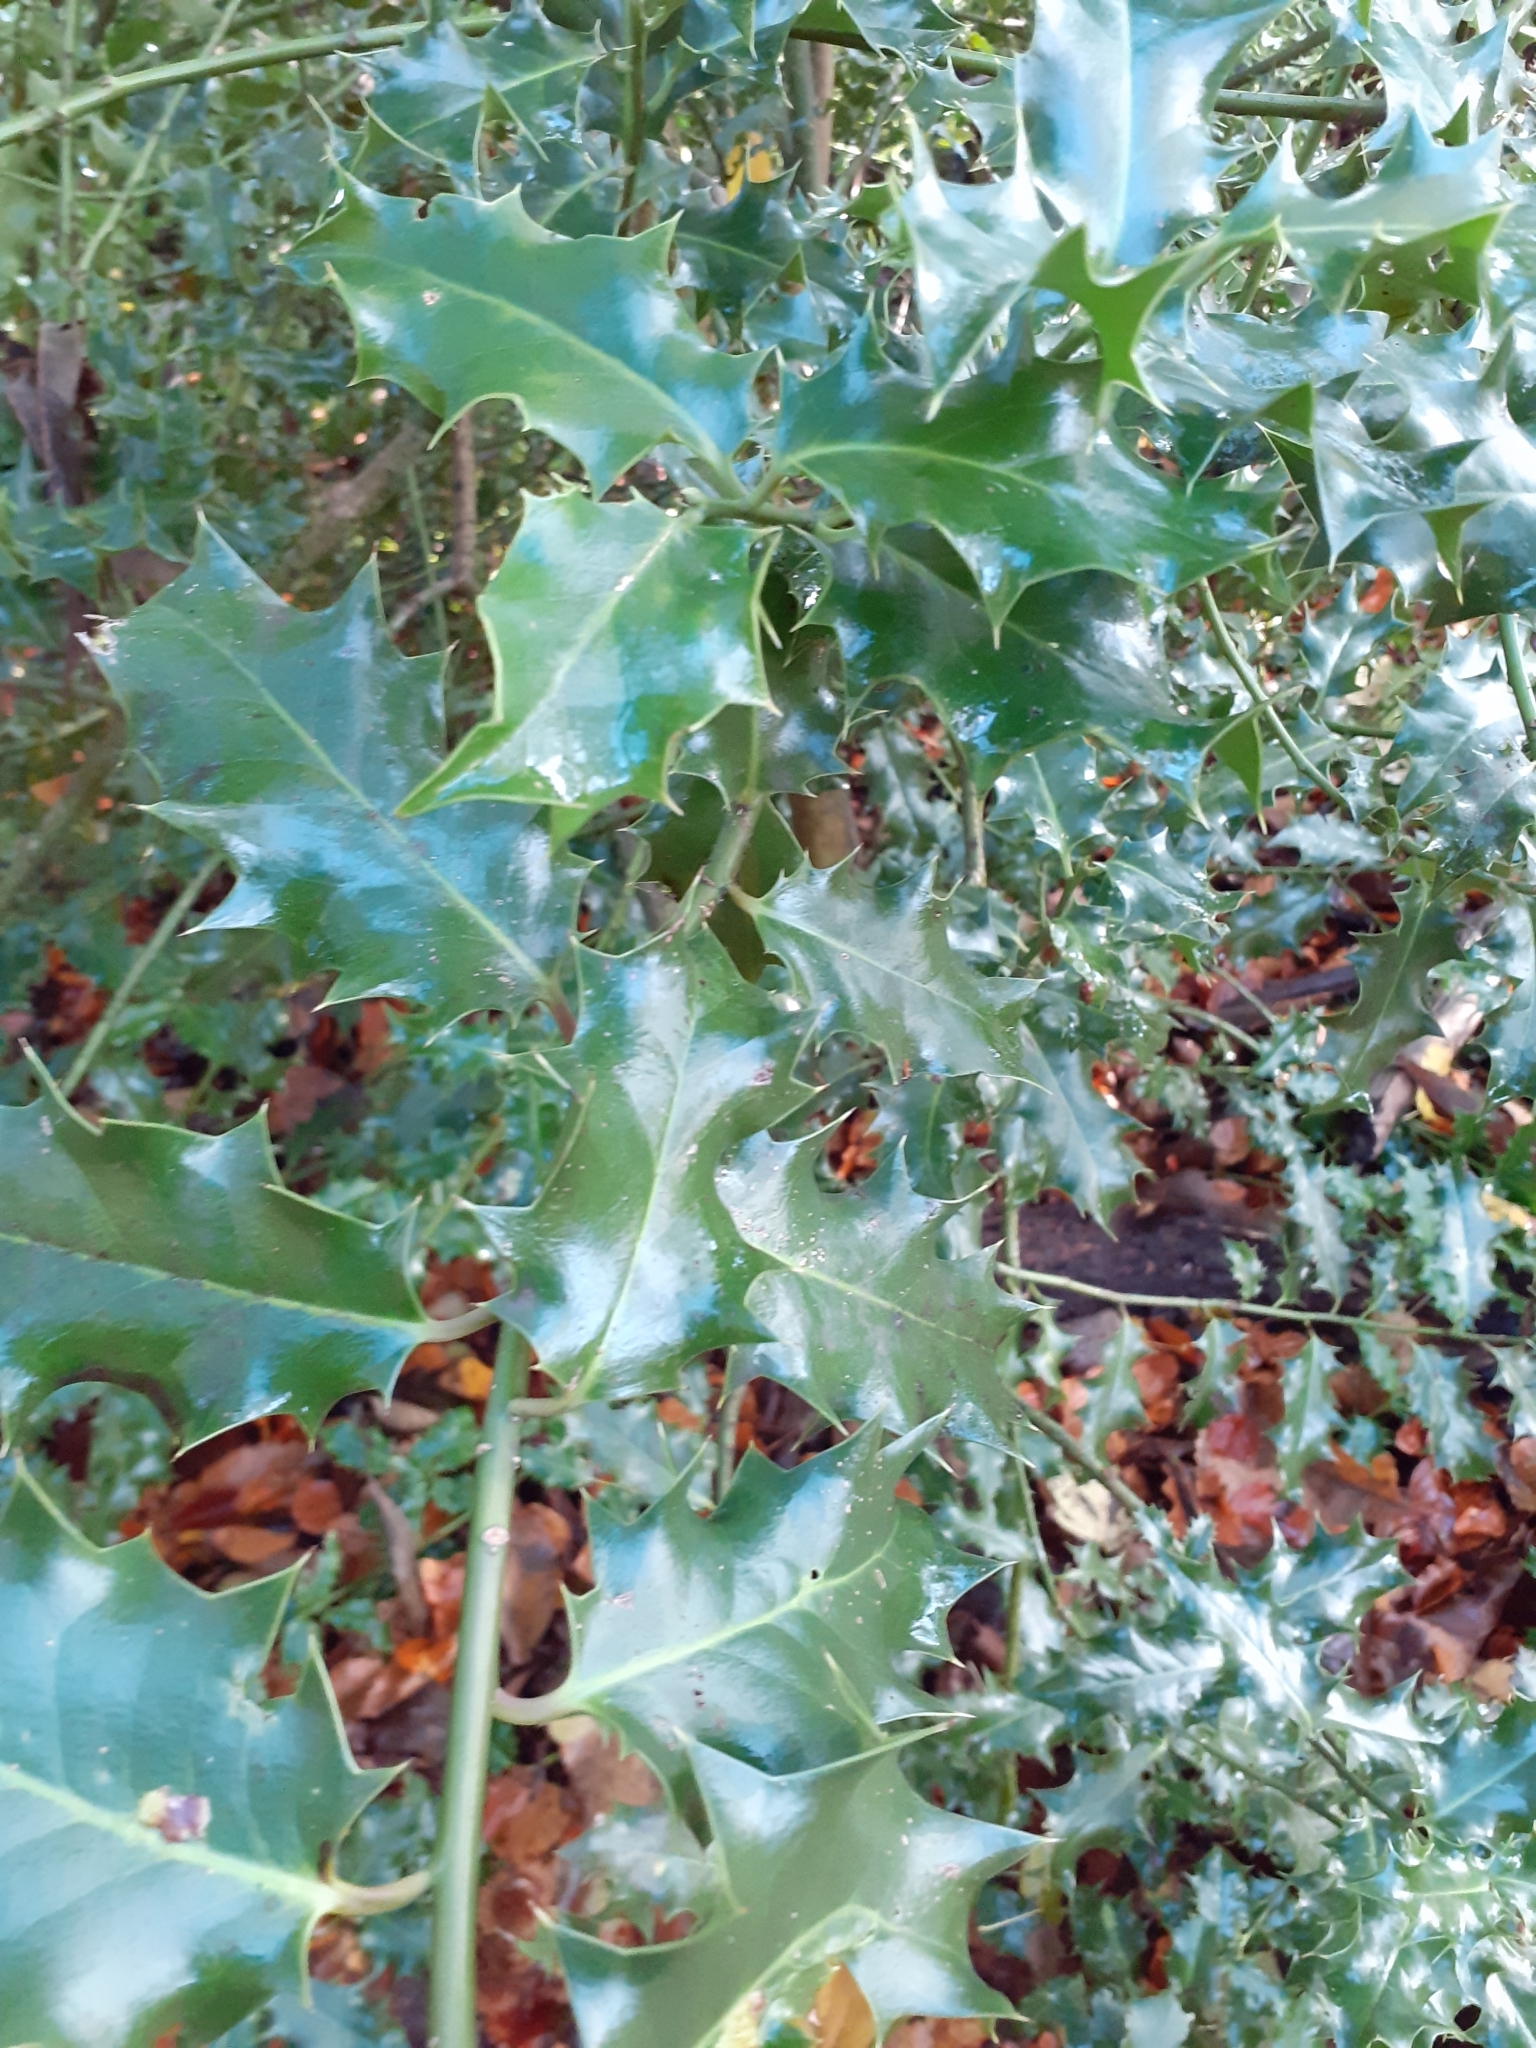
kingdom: Plantae
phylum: Tracheophyta
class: Magnoliopsida
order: Aquifoliales
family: Aquifoliaceae
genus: Ilex
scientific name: Ilex aquifolium
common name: English holly
